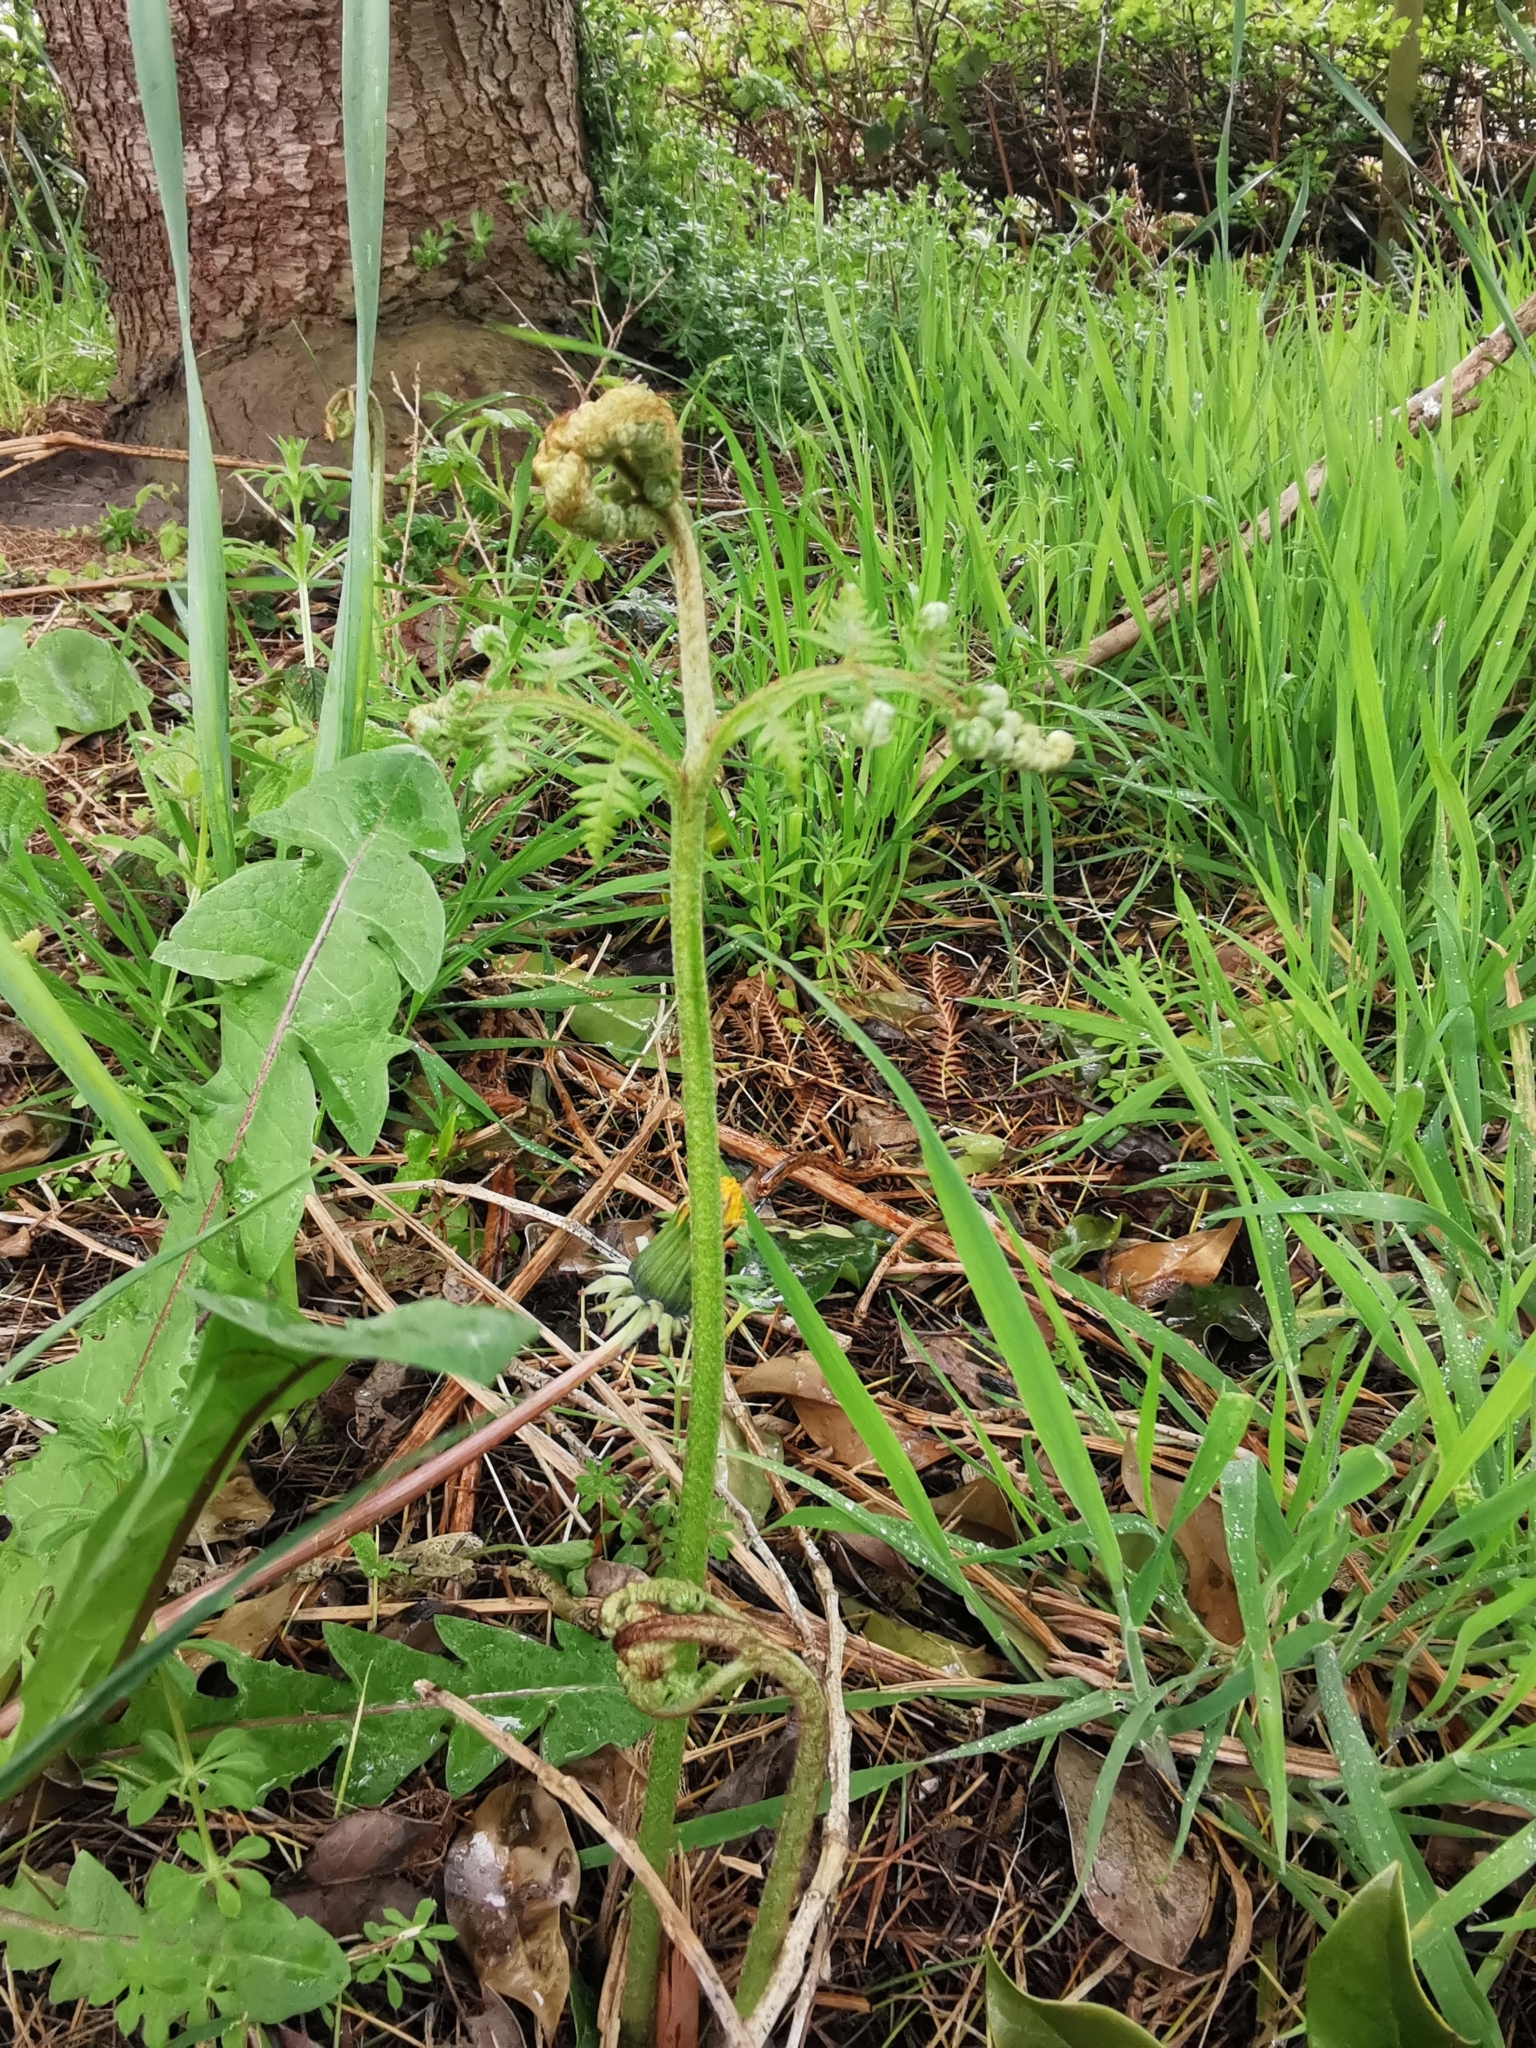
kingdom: Plantae
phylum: Tracheophyta
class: Polypodiopsida
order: Polypodiales
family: Dennstaedtiaceae
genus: Pteridium
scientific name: Pteridium aquilinum
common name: Bracken
